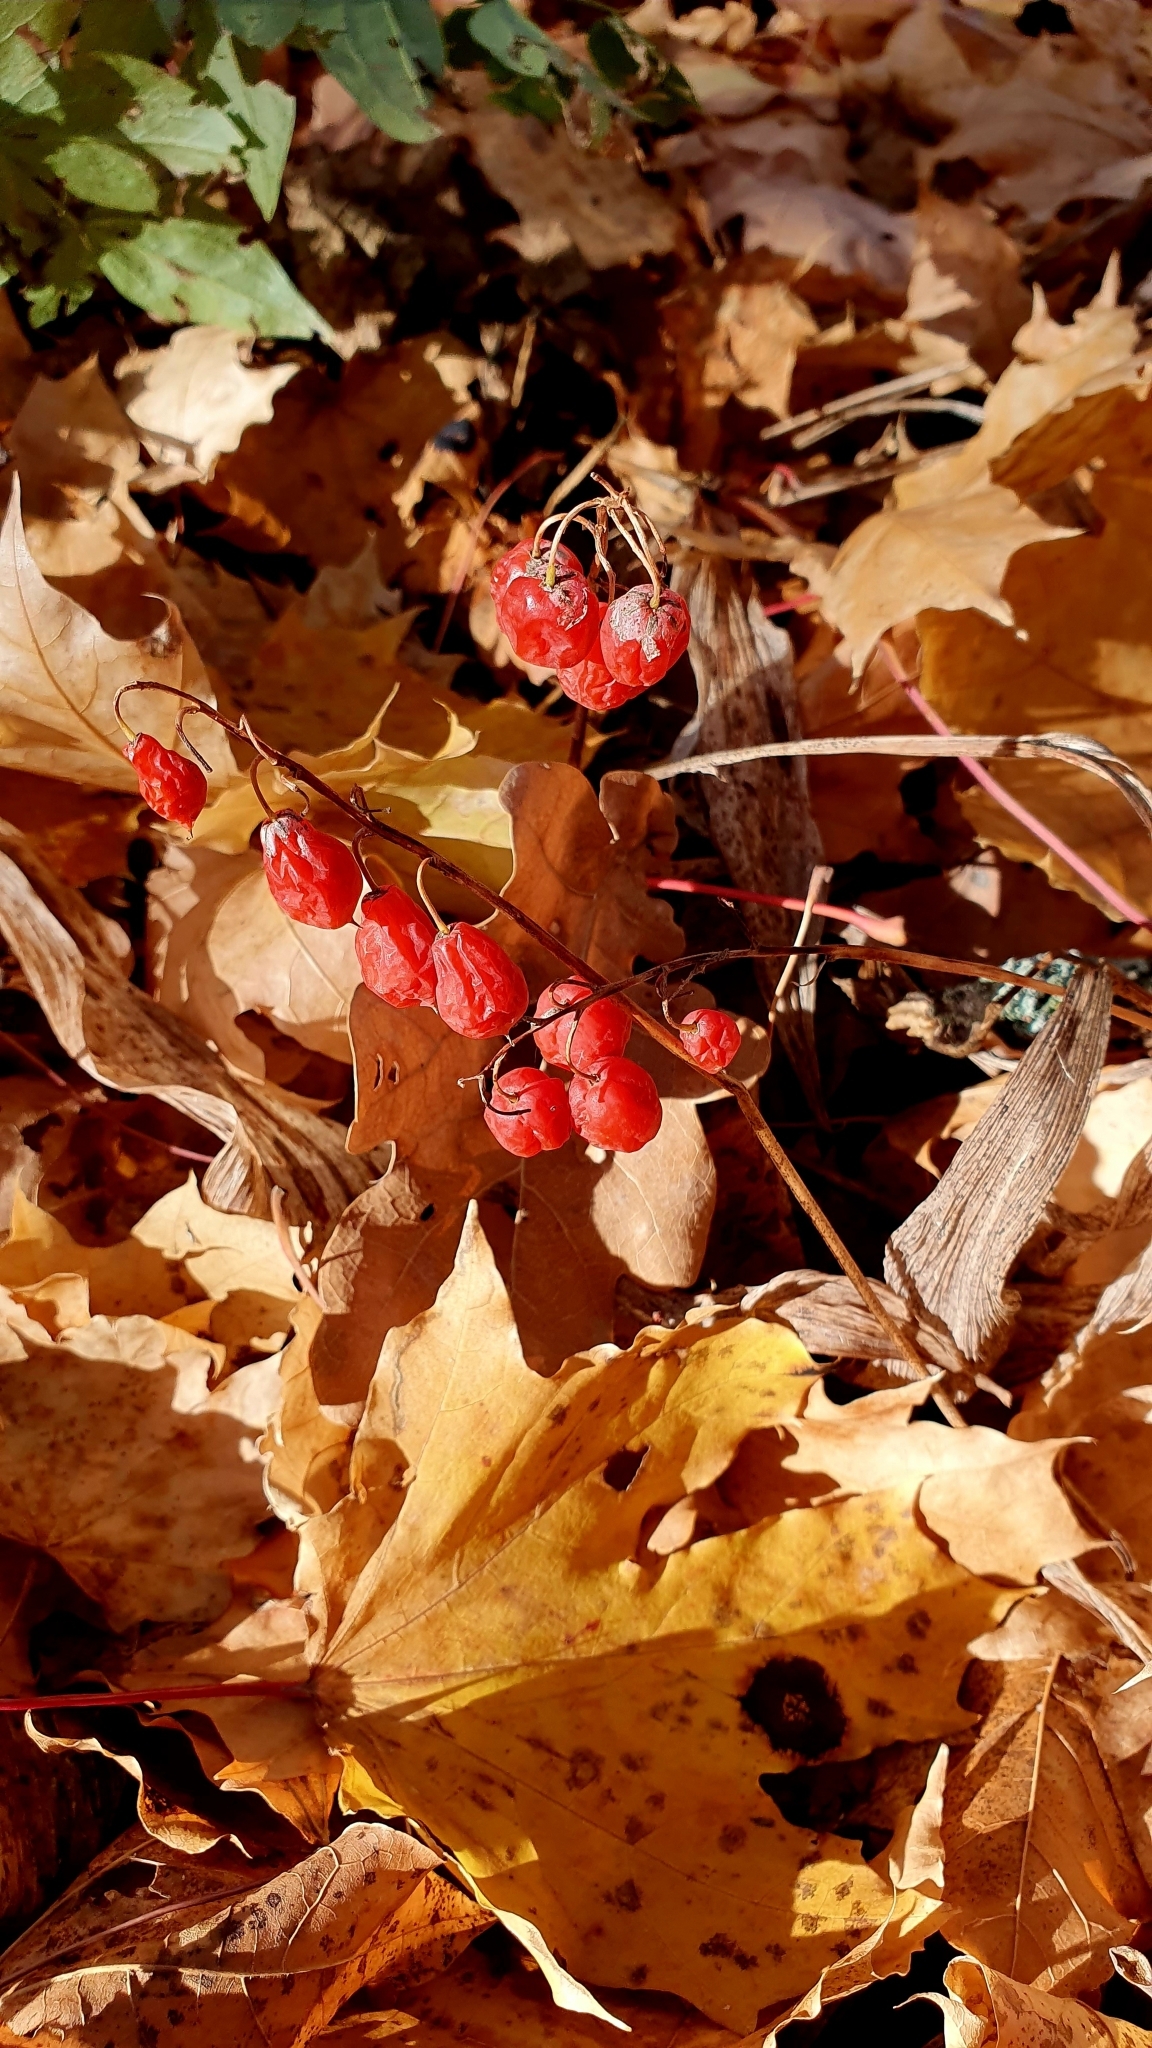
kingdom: Plantae
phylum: Tracheophyta
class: Liliopsida
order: Asparagales
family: Asparagaceae
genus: Convallaria
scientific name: Convallaria majalis
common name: Lily-of-the-valley
